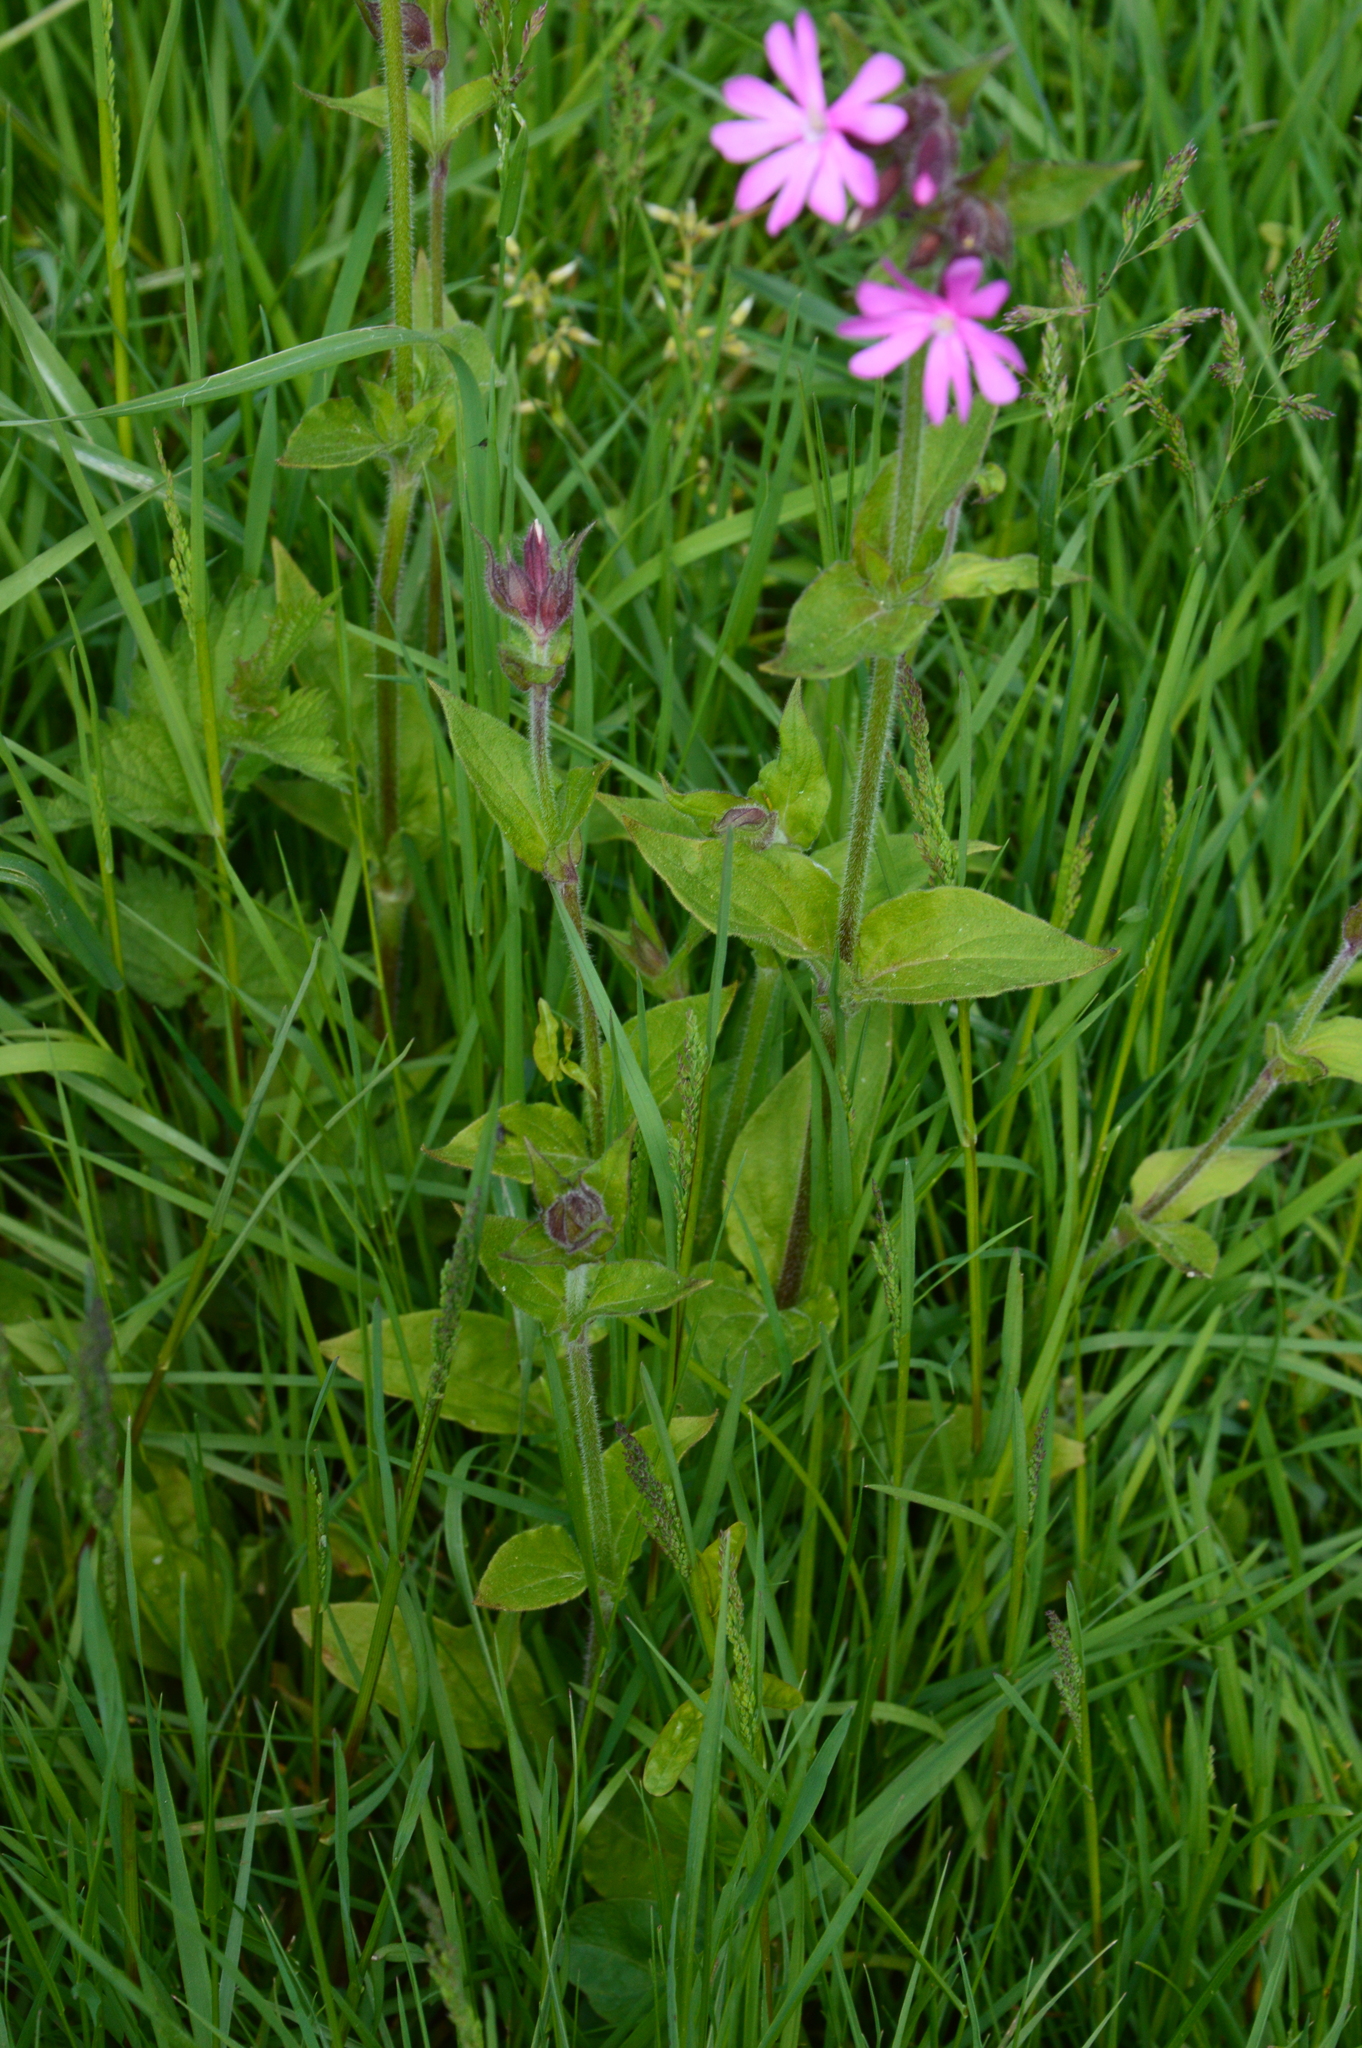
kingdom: Plantae
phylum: Tracheophyta
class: Magnoliopsida
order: Caryophyllales
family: Caryophyllaceae
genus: Silene
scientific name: Silene dioica
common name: Red campion
